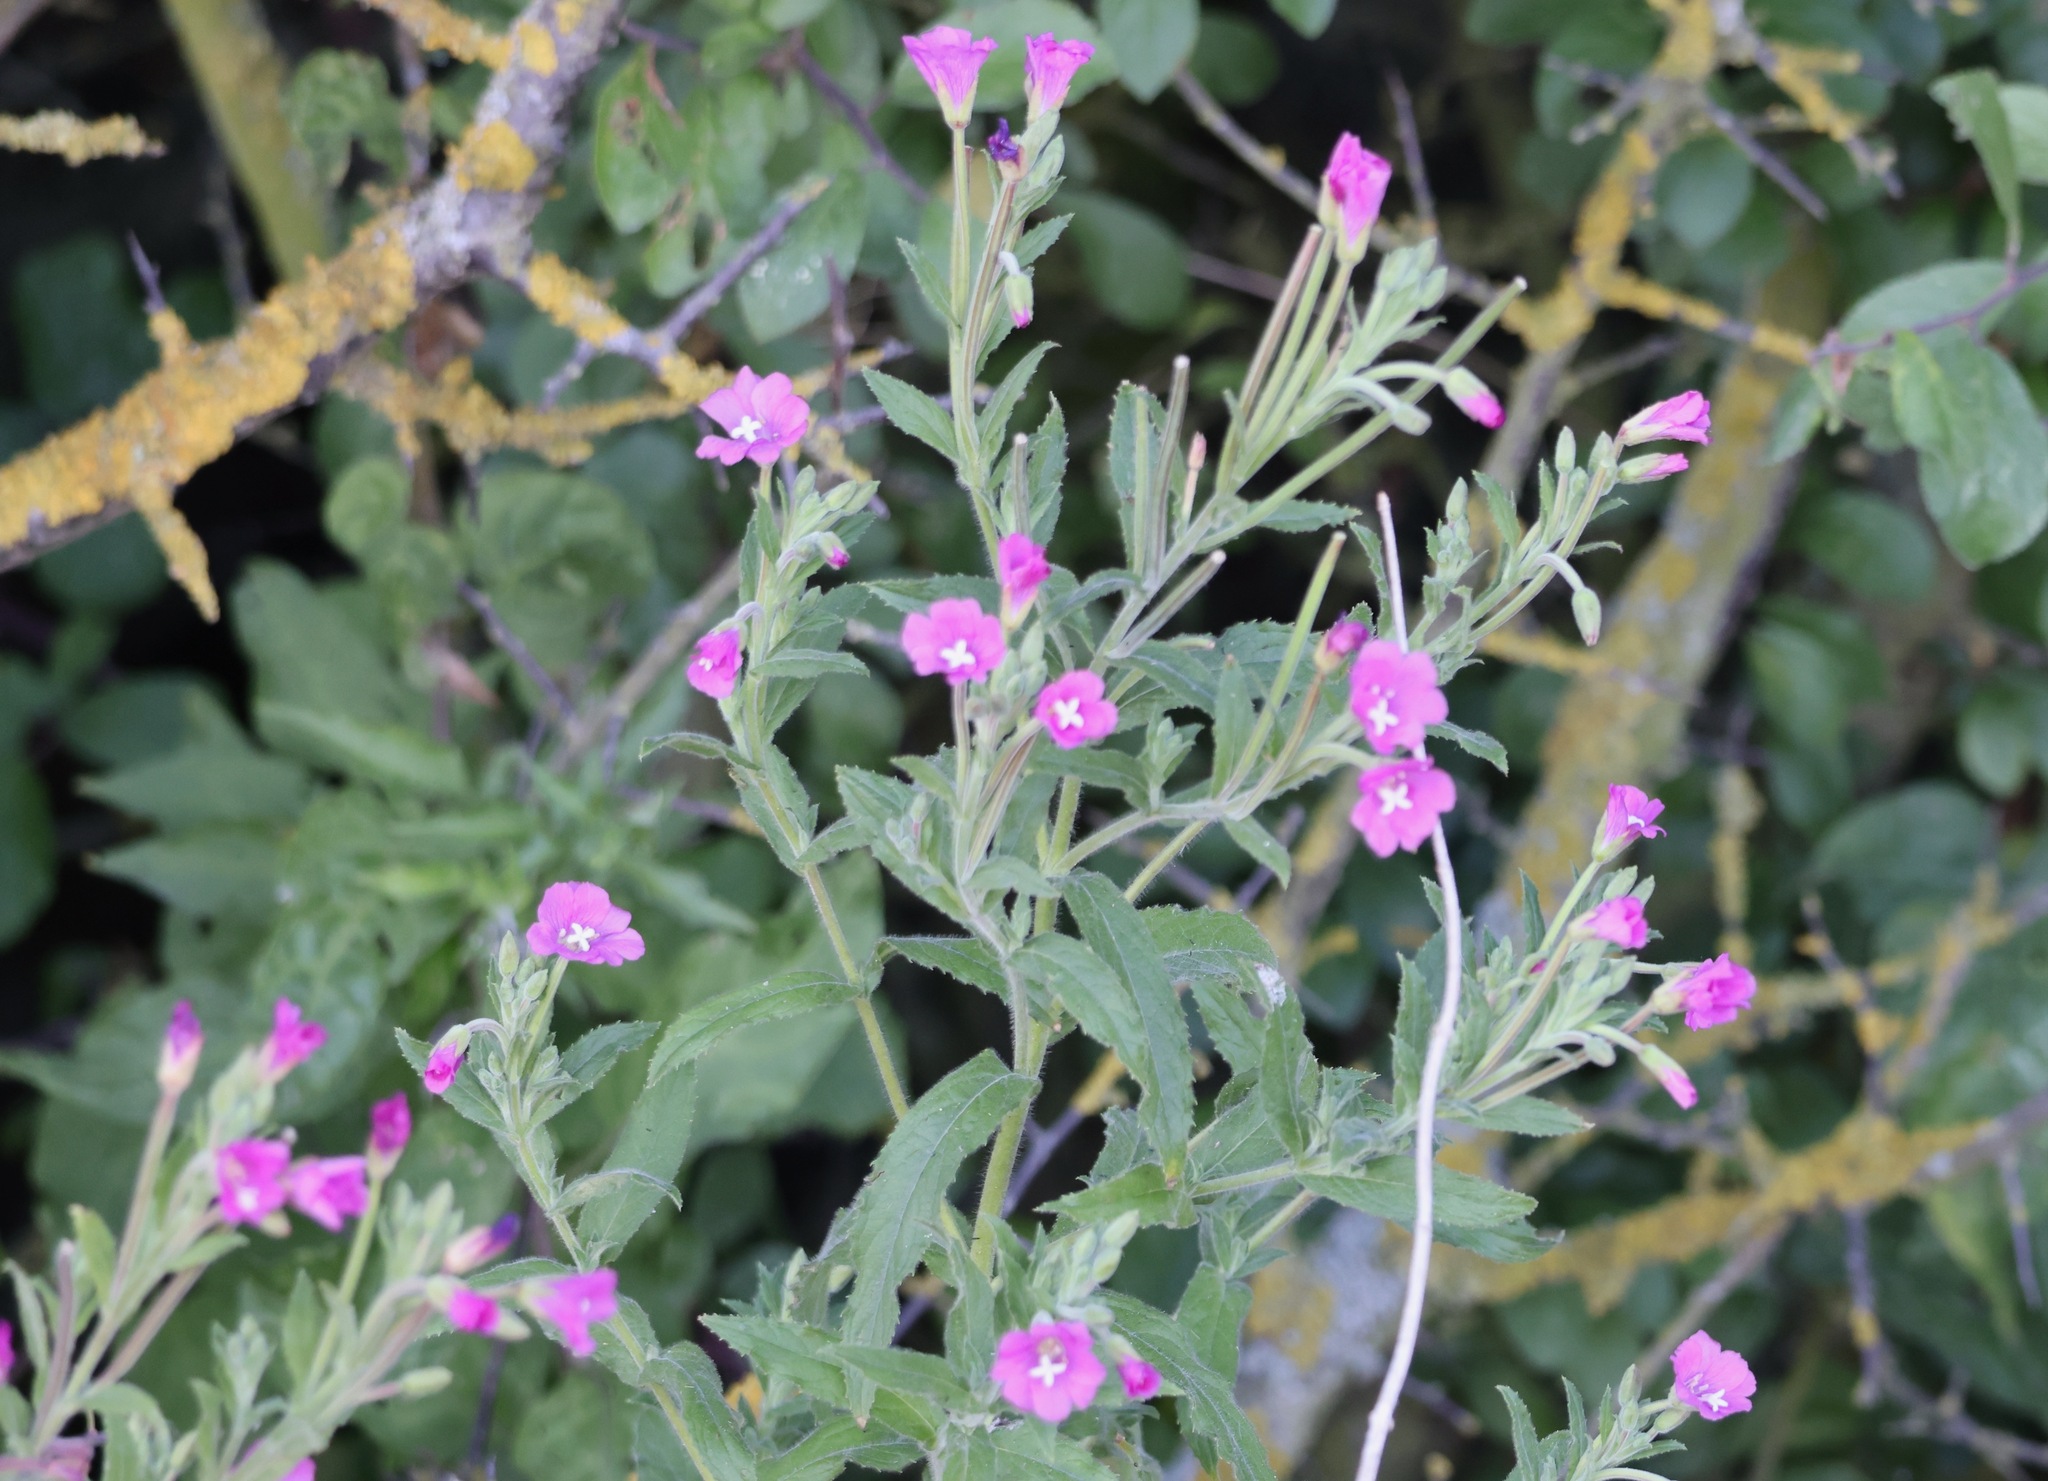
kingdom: Plantae
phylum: Tracheophyta
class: Magnoliopsida
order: Myrtales
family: Onagraceae
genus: Epilobium
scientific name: Epilobium hirsutum
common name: Great willowherb
